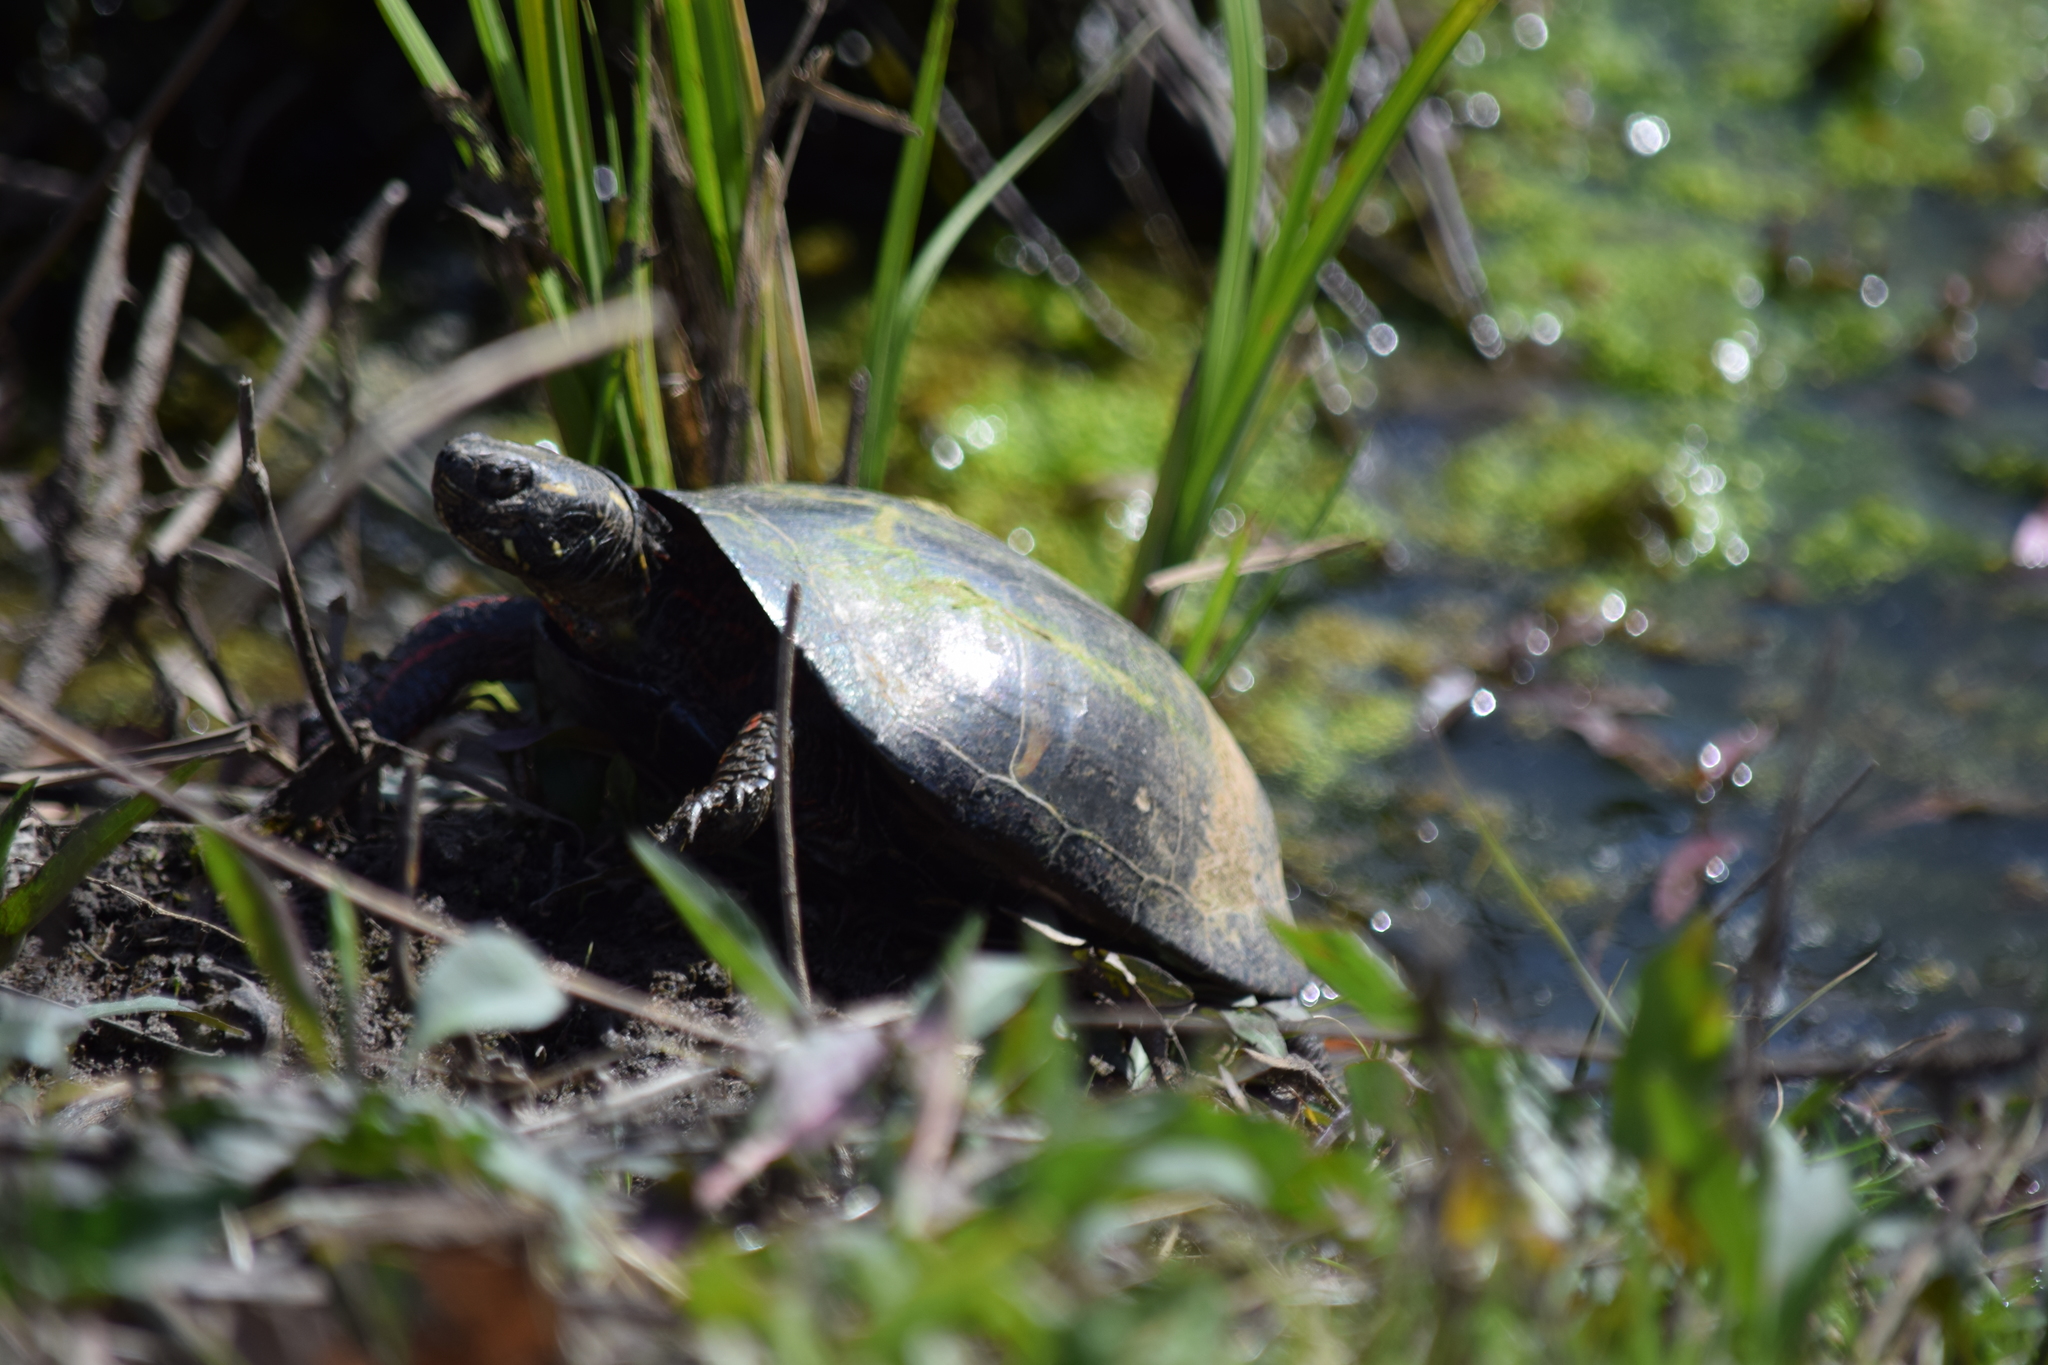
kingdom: Animalia
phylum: Chordata
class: Testudines
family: Emydidae
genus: Chrysemys
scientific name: Chrysemys picta
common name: Painted turtle
